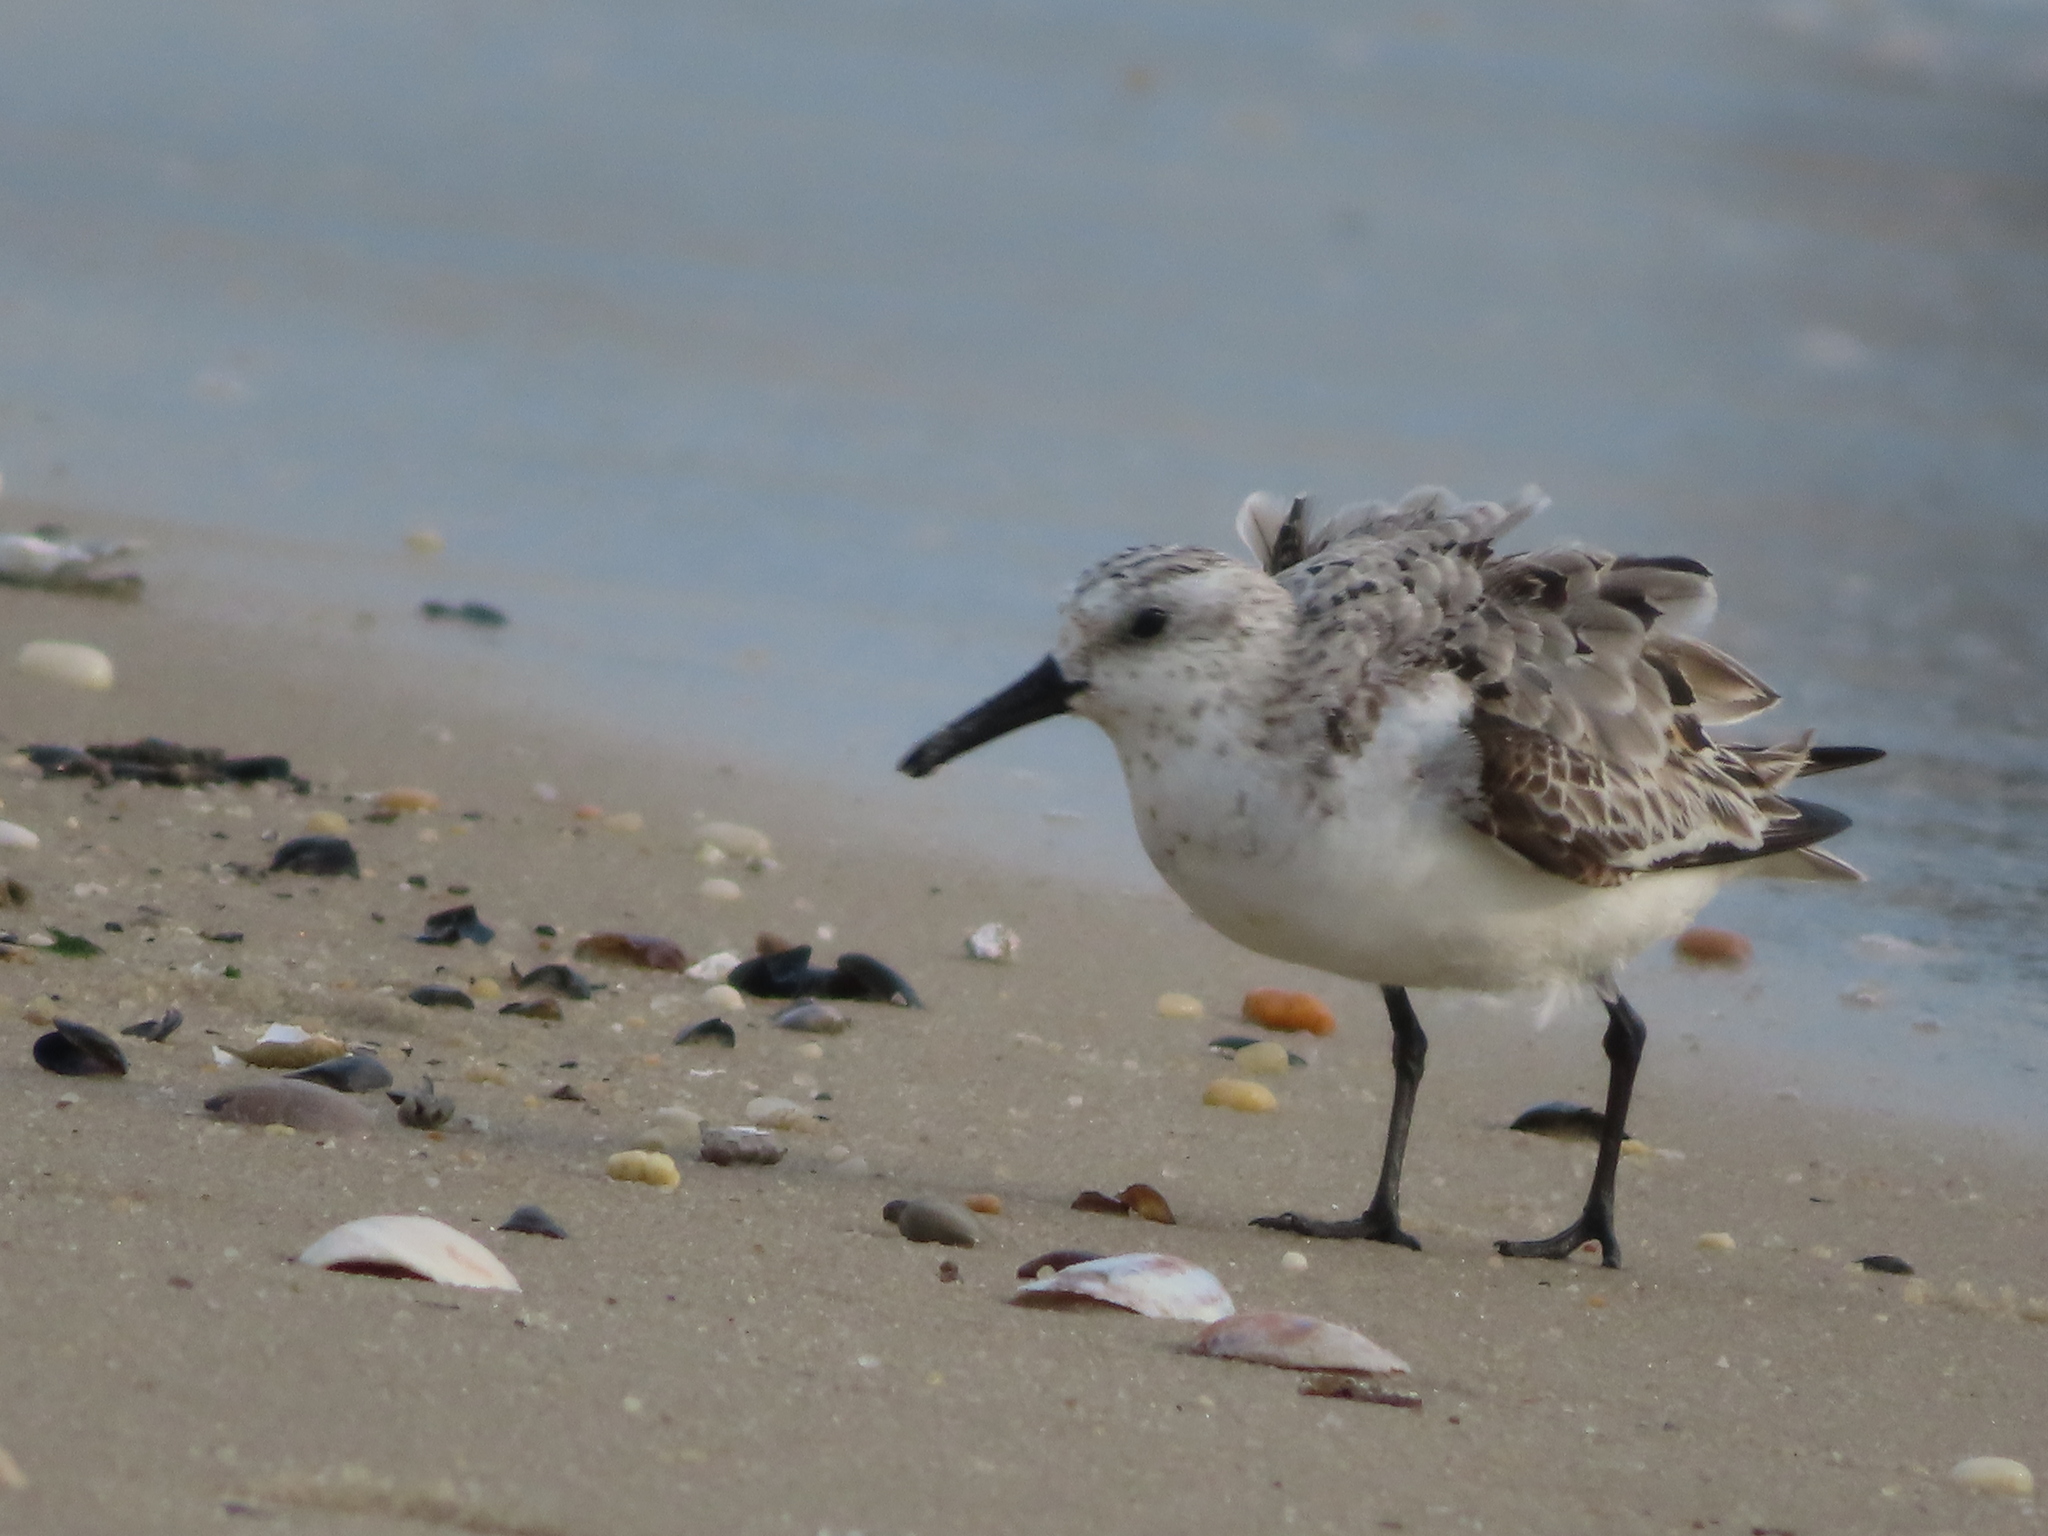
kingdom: Animalia
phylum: Chordata
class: Aves
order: Charadriiformes
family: Scolopacidae
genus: Calidris
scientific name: Calidris alba
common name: Sanderling
